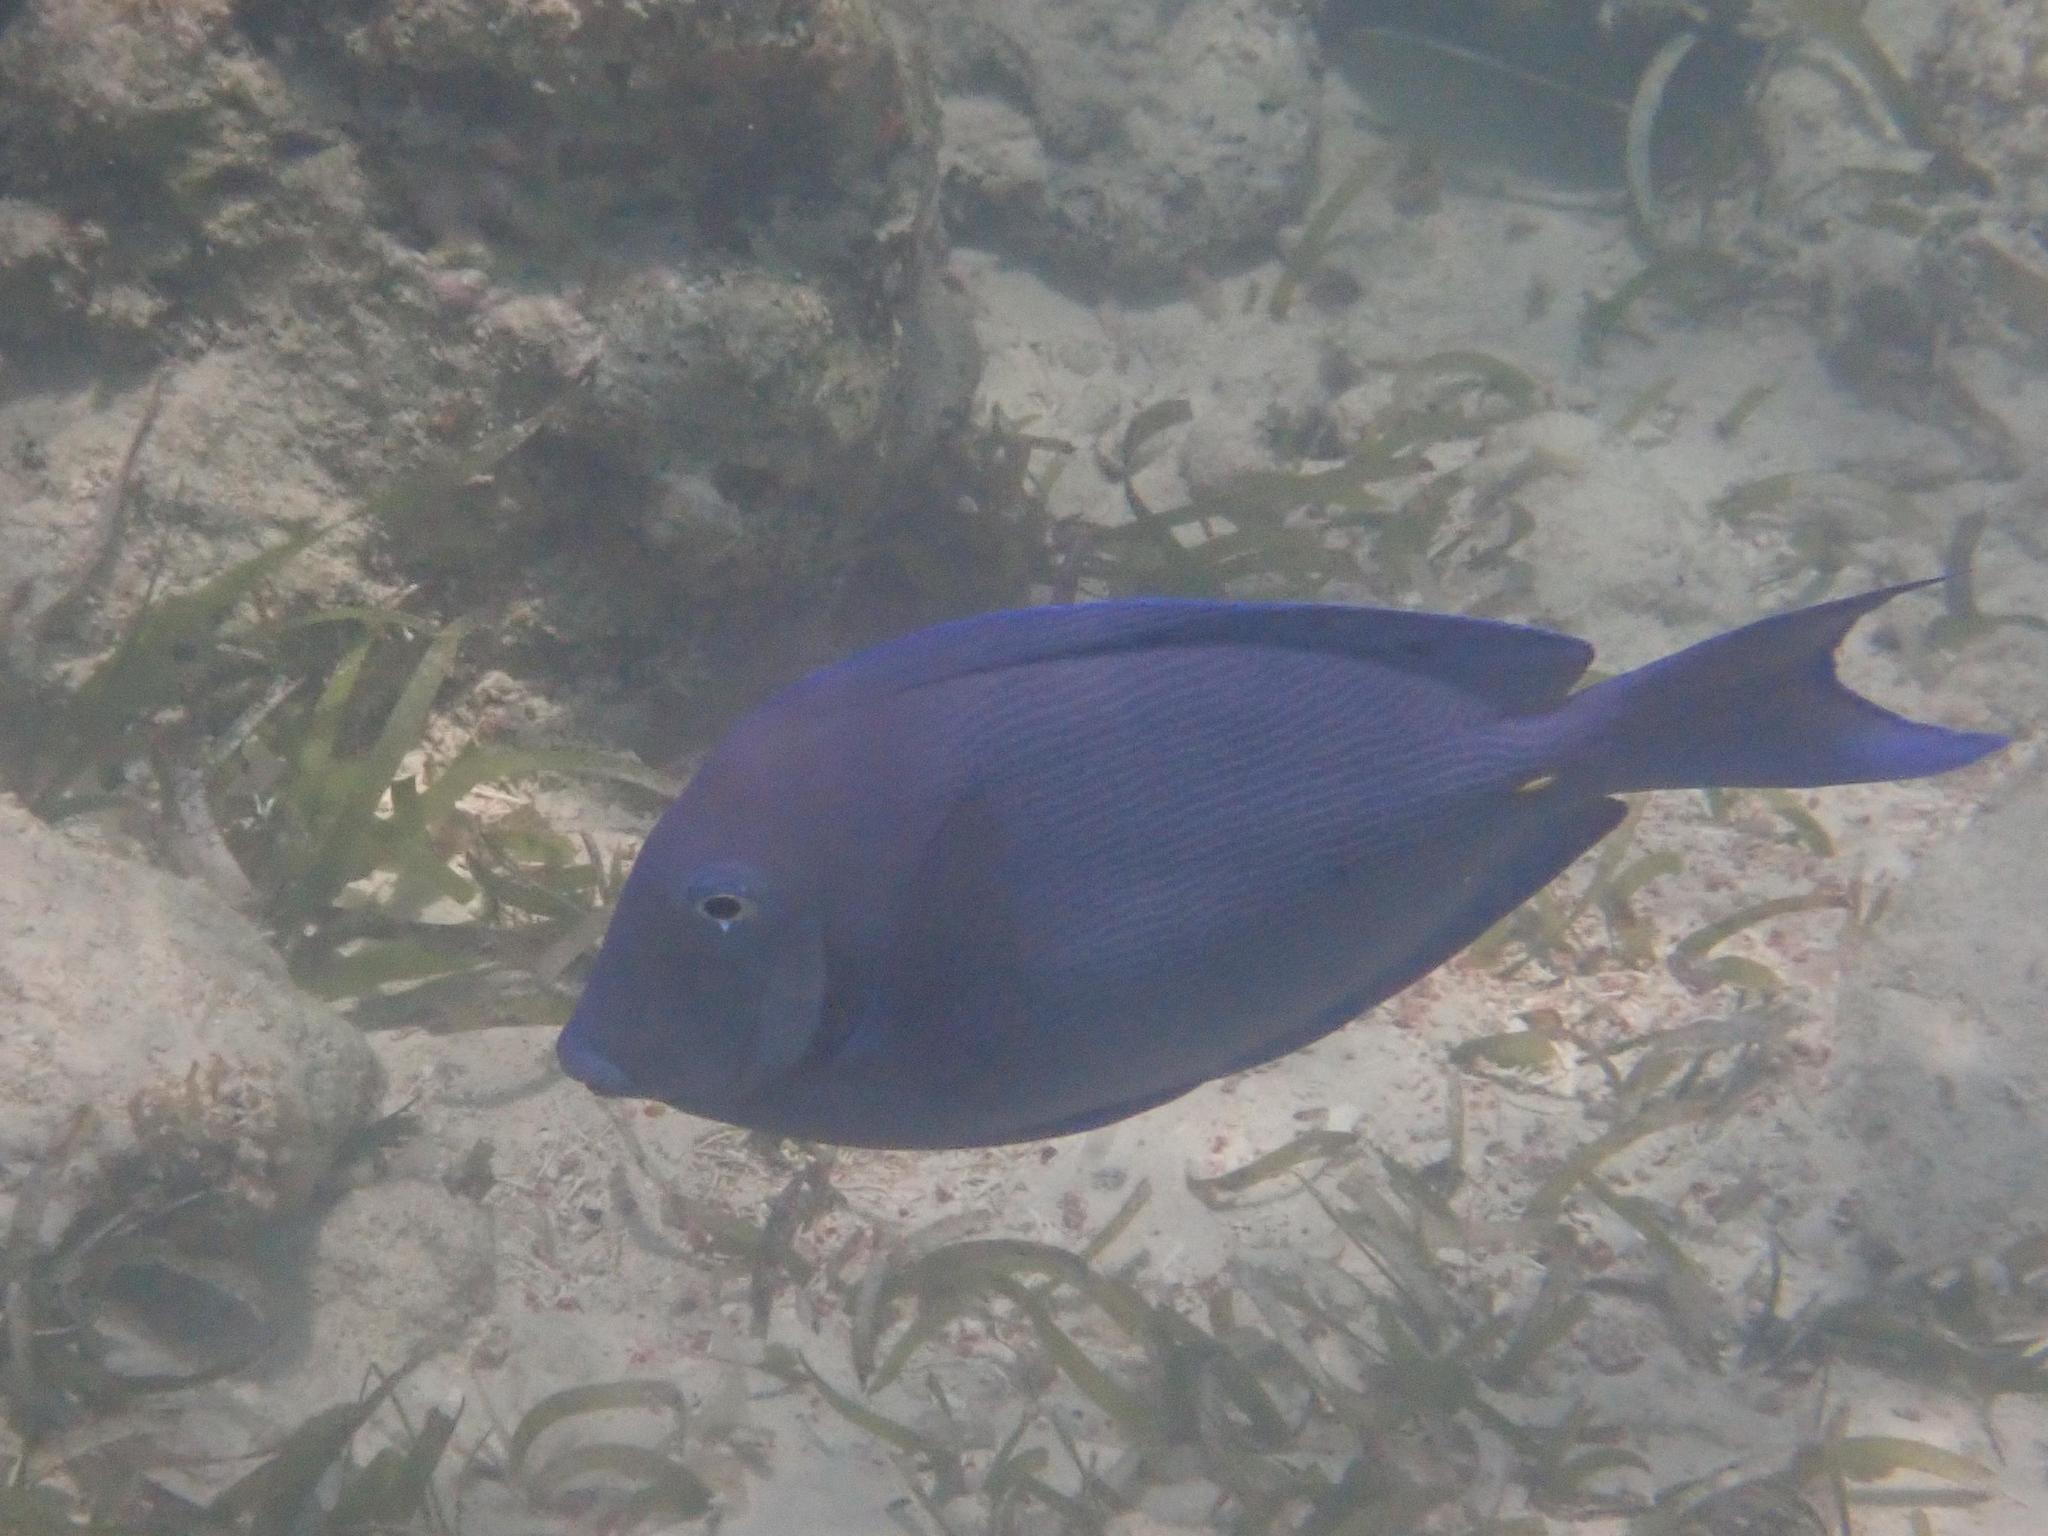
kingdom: Animalia
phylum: Chordata
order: Perciformes
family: Acanthuridae
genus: Acanthurus
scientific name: Acanthurus coeruleus
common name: Blue tang
